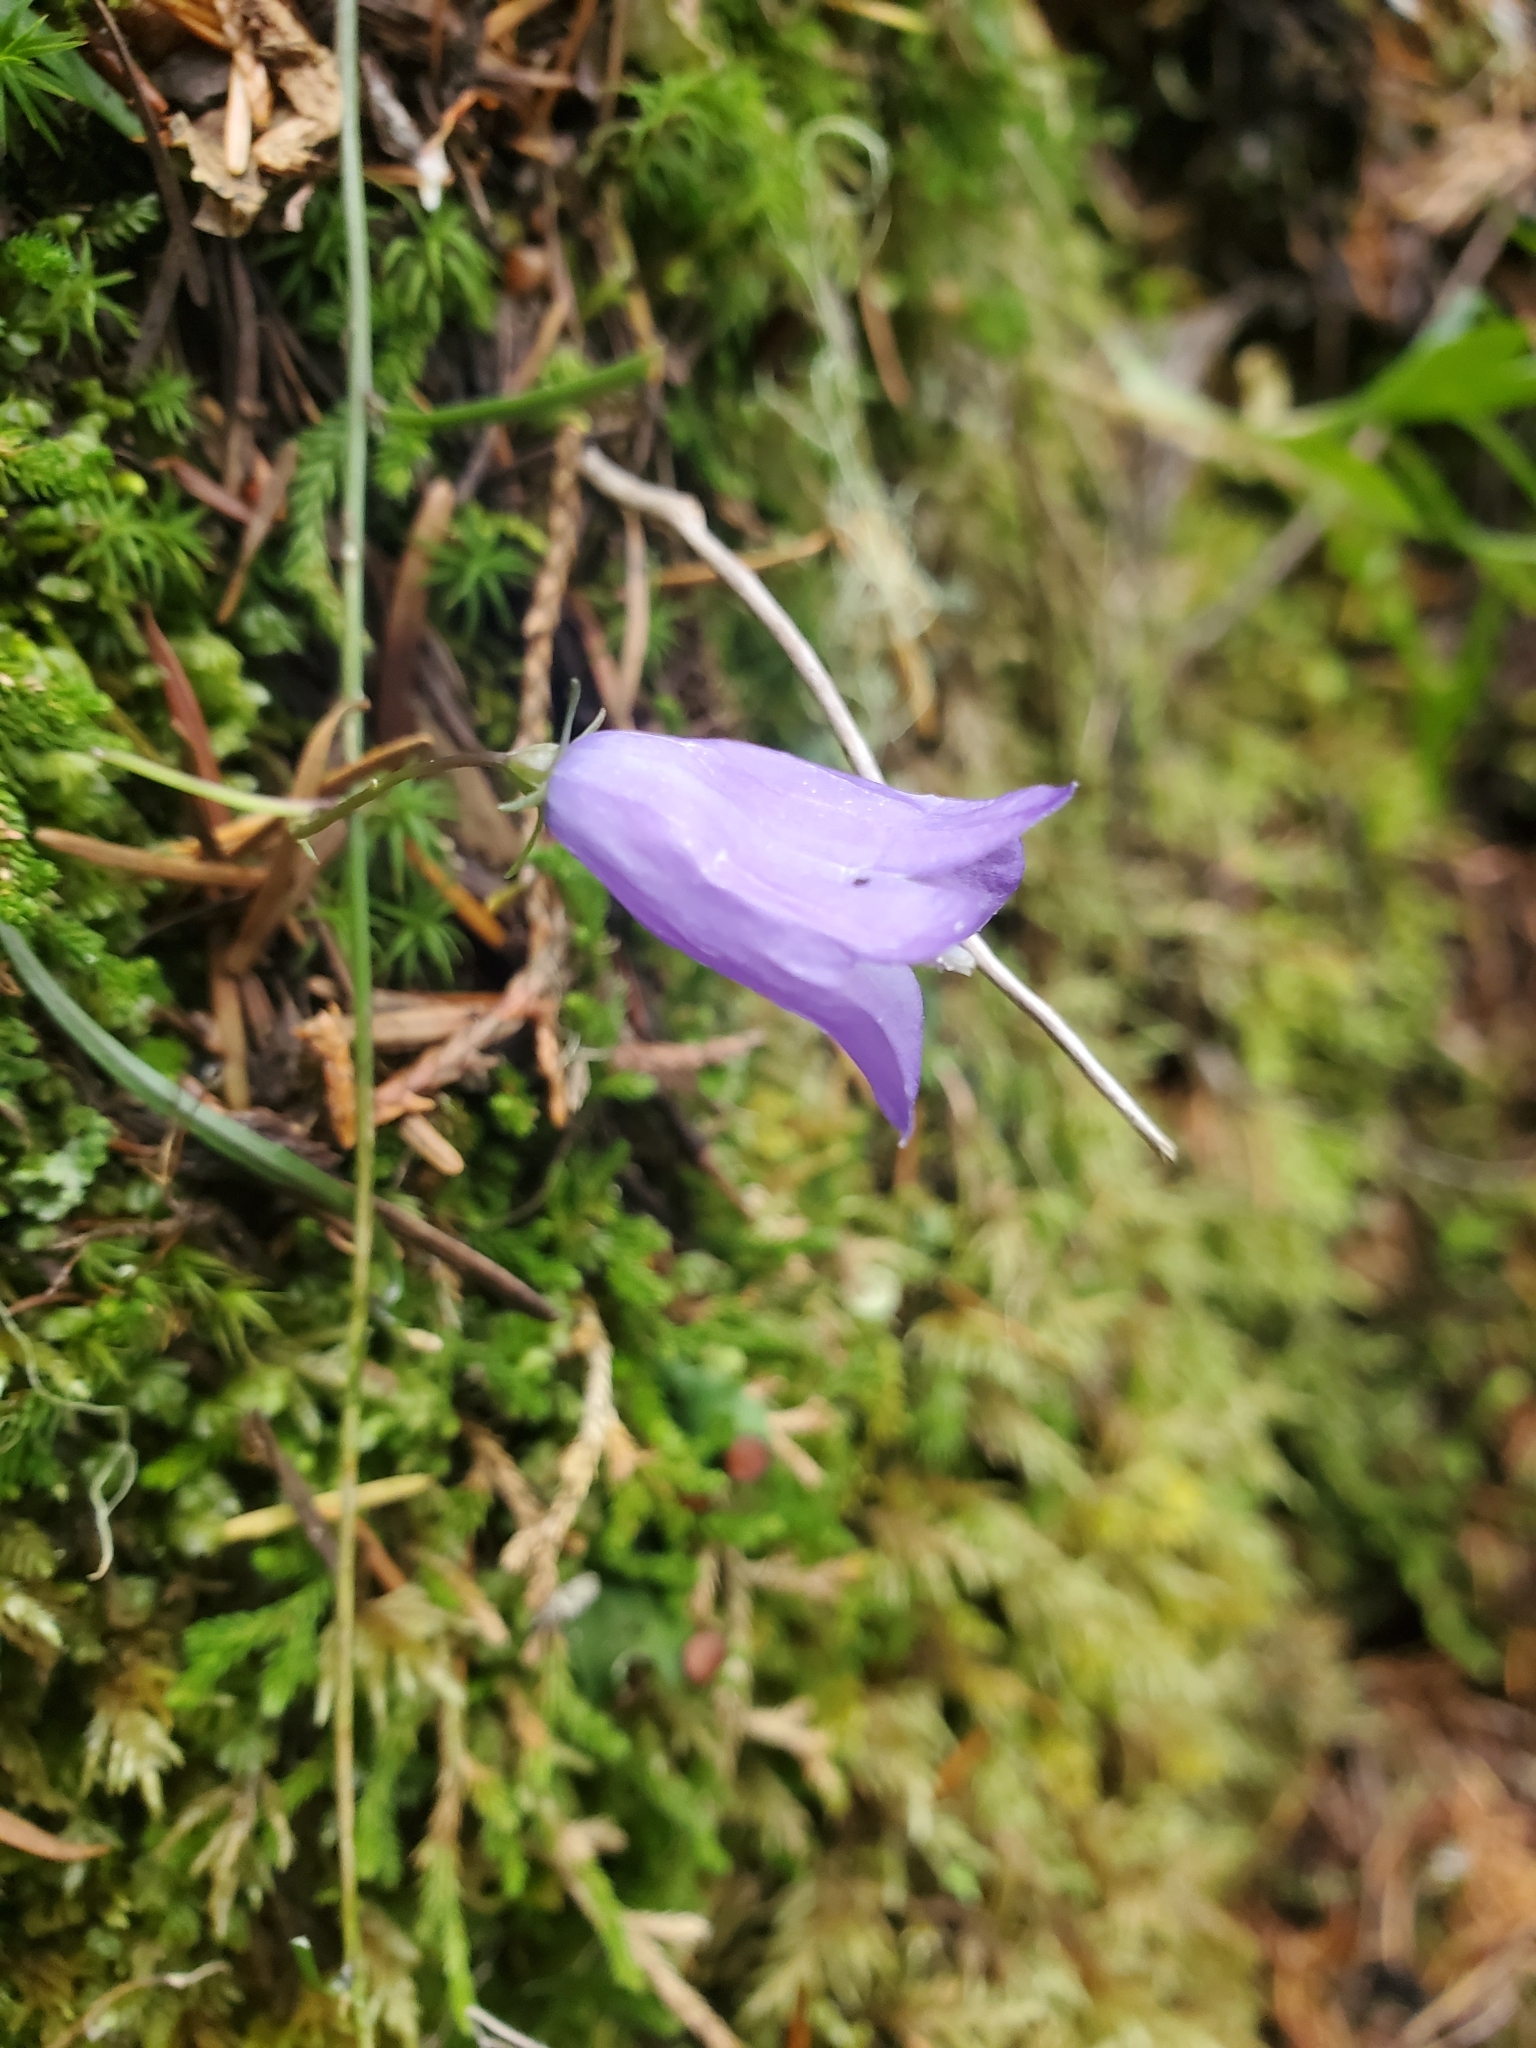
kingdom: Plantae
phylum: Tracheophyta
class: Magnoliopsida
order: Asterales
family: Campanulaceae
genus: Campanula
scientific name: Campanula alaskana
